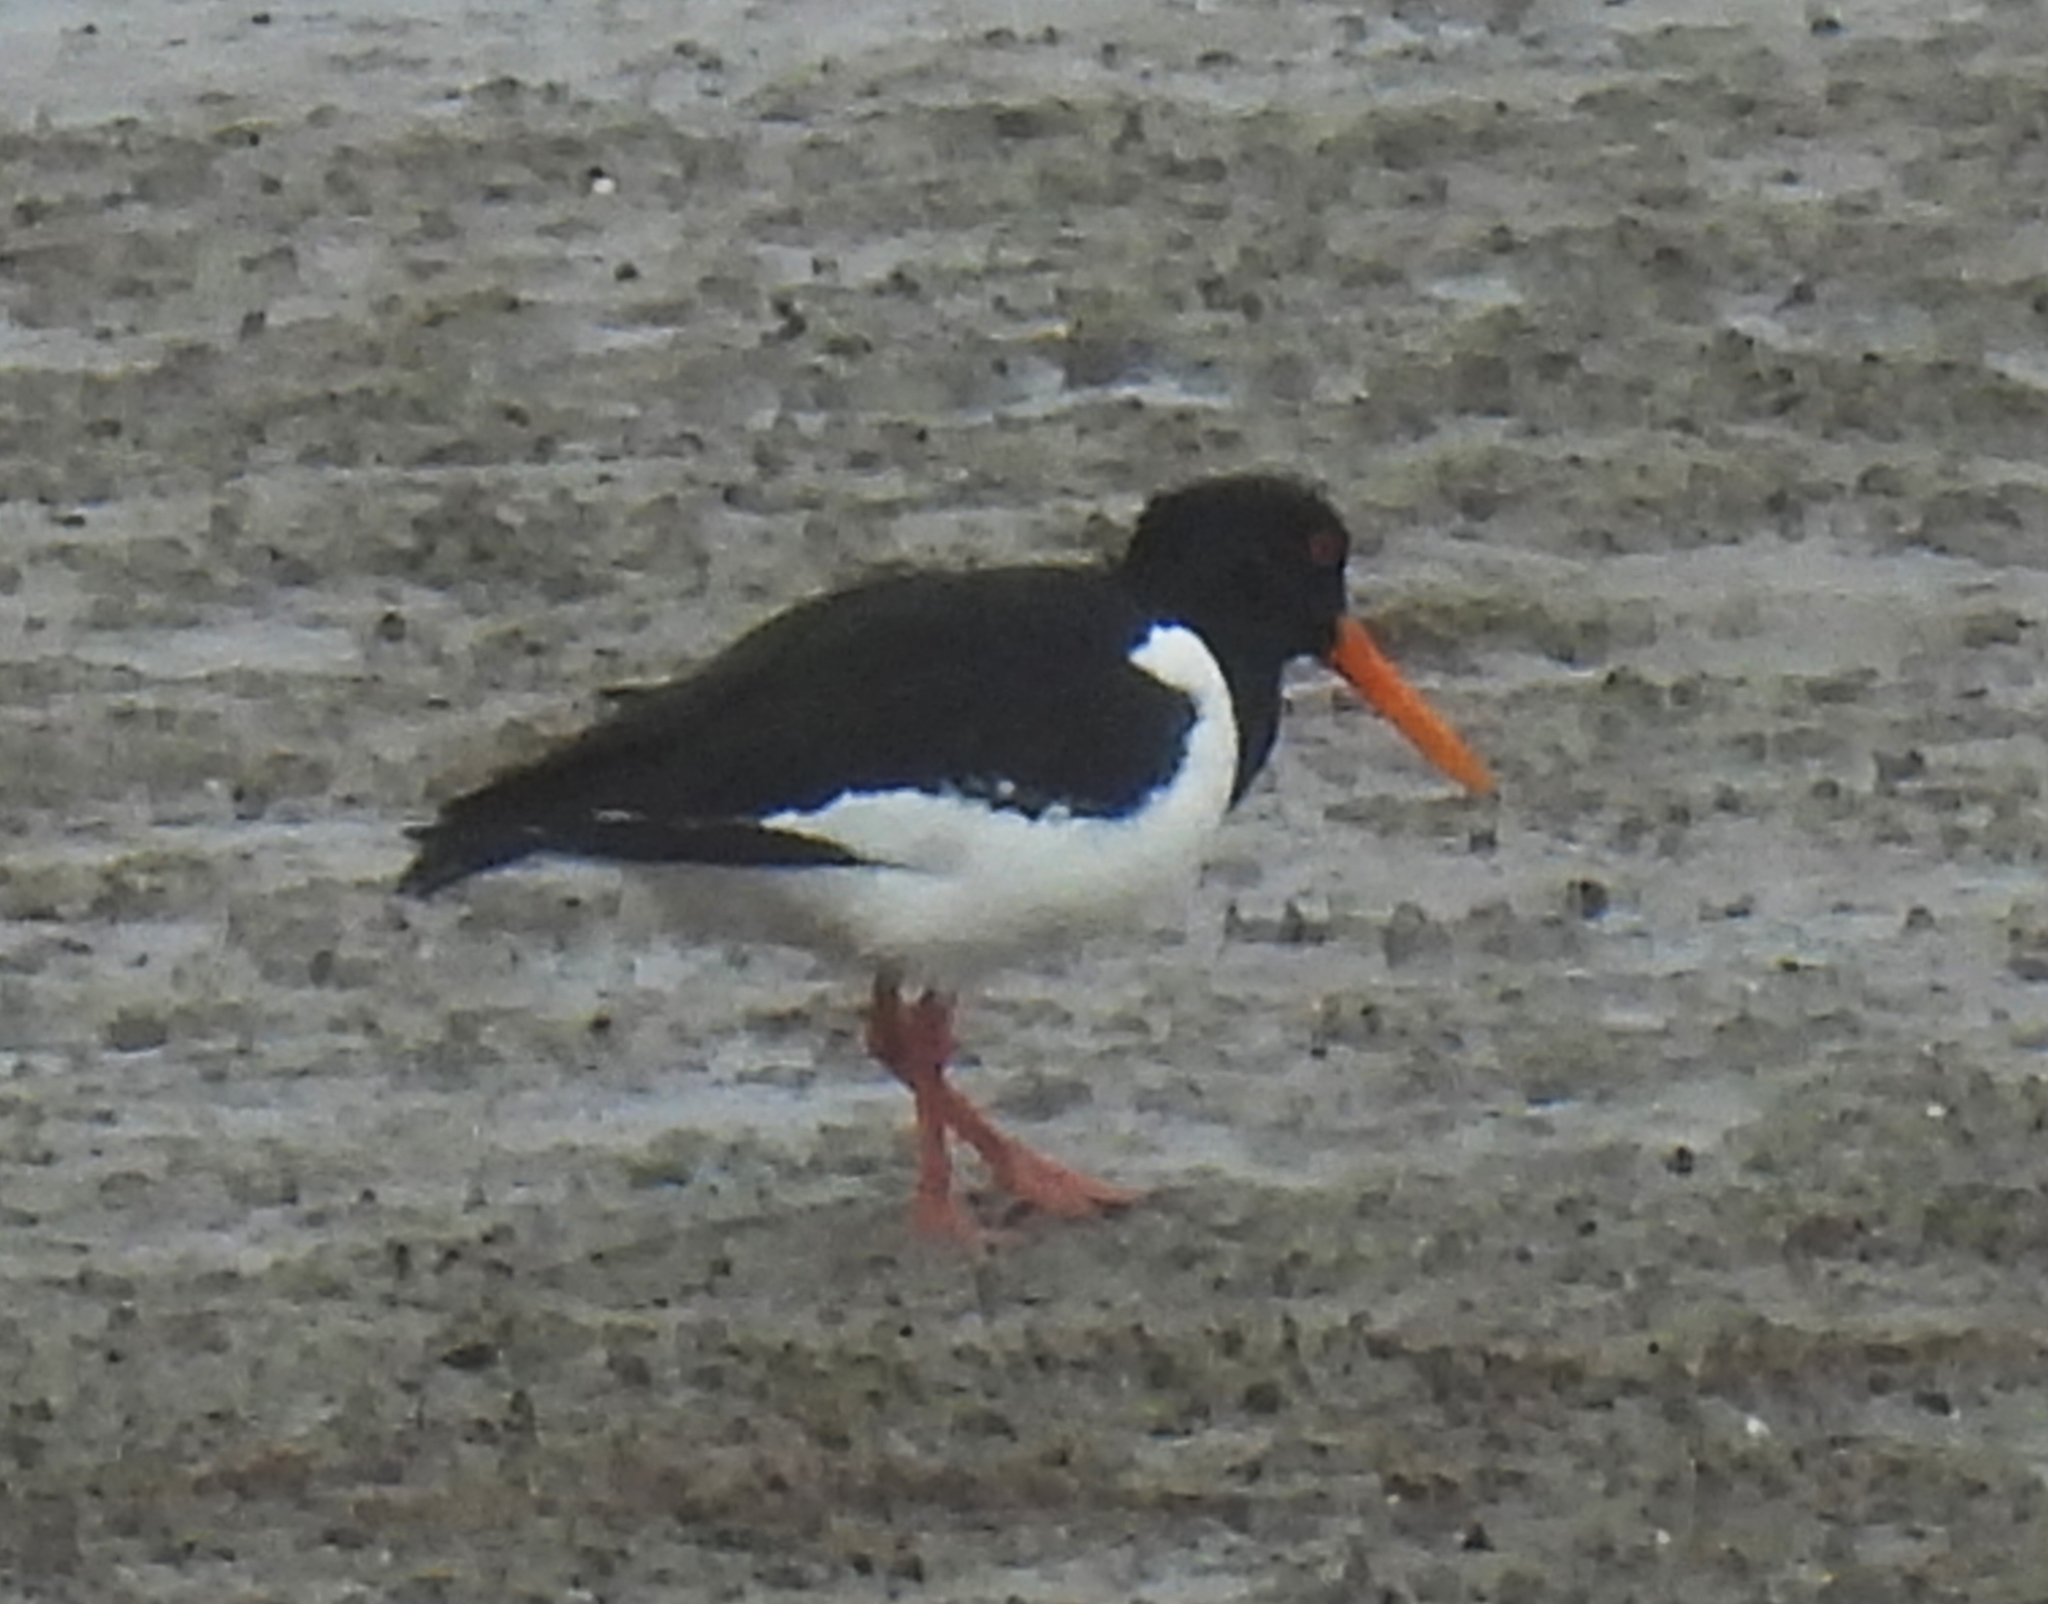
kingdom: Animalia
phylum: Chordata
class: Aves
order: Charadriiformes
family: Haematopodidae
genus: Haematopus
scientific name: Haematopus ostralegus
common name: Eurasian oystercatcher
